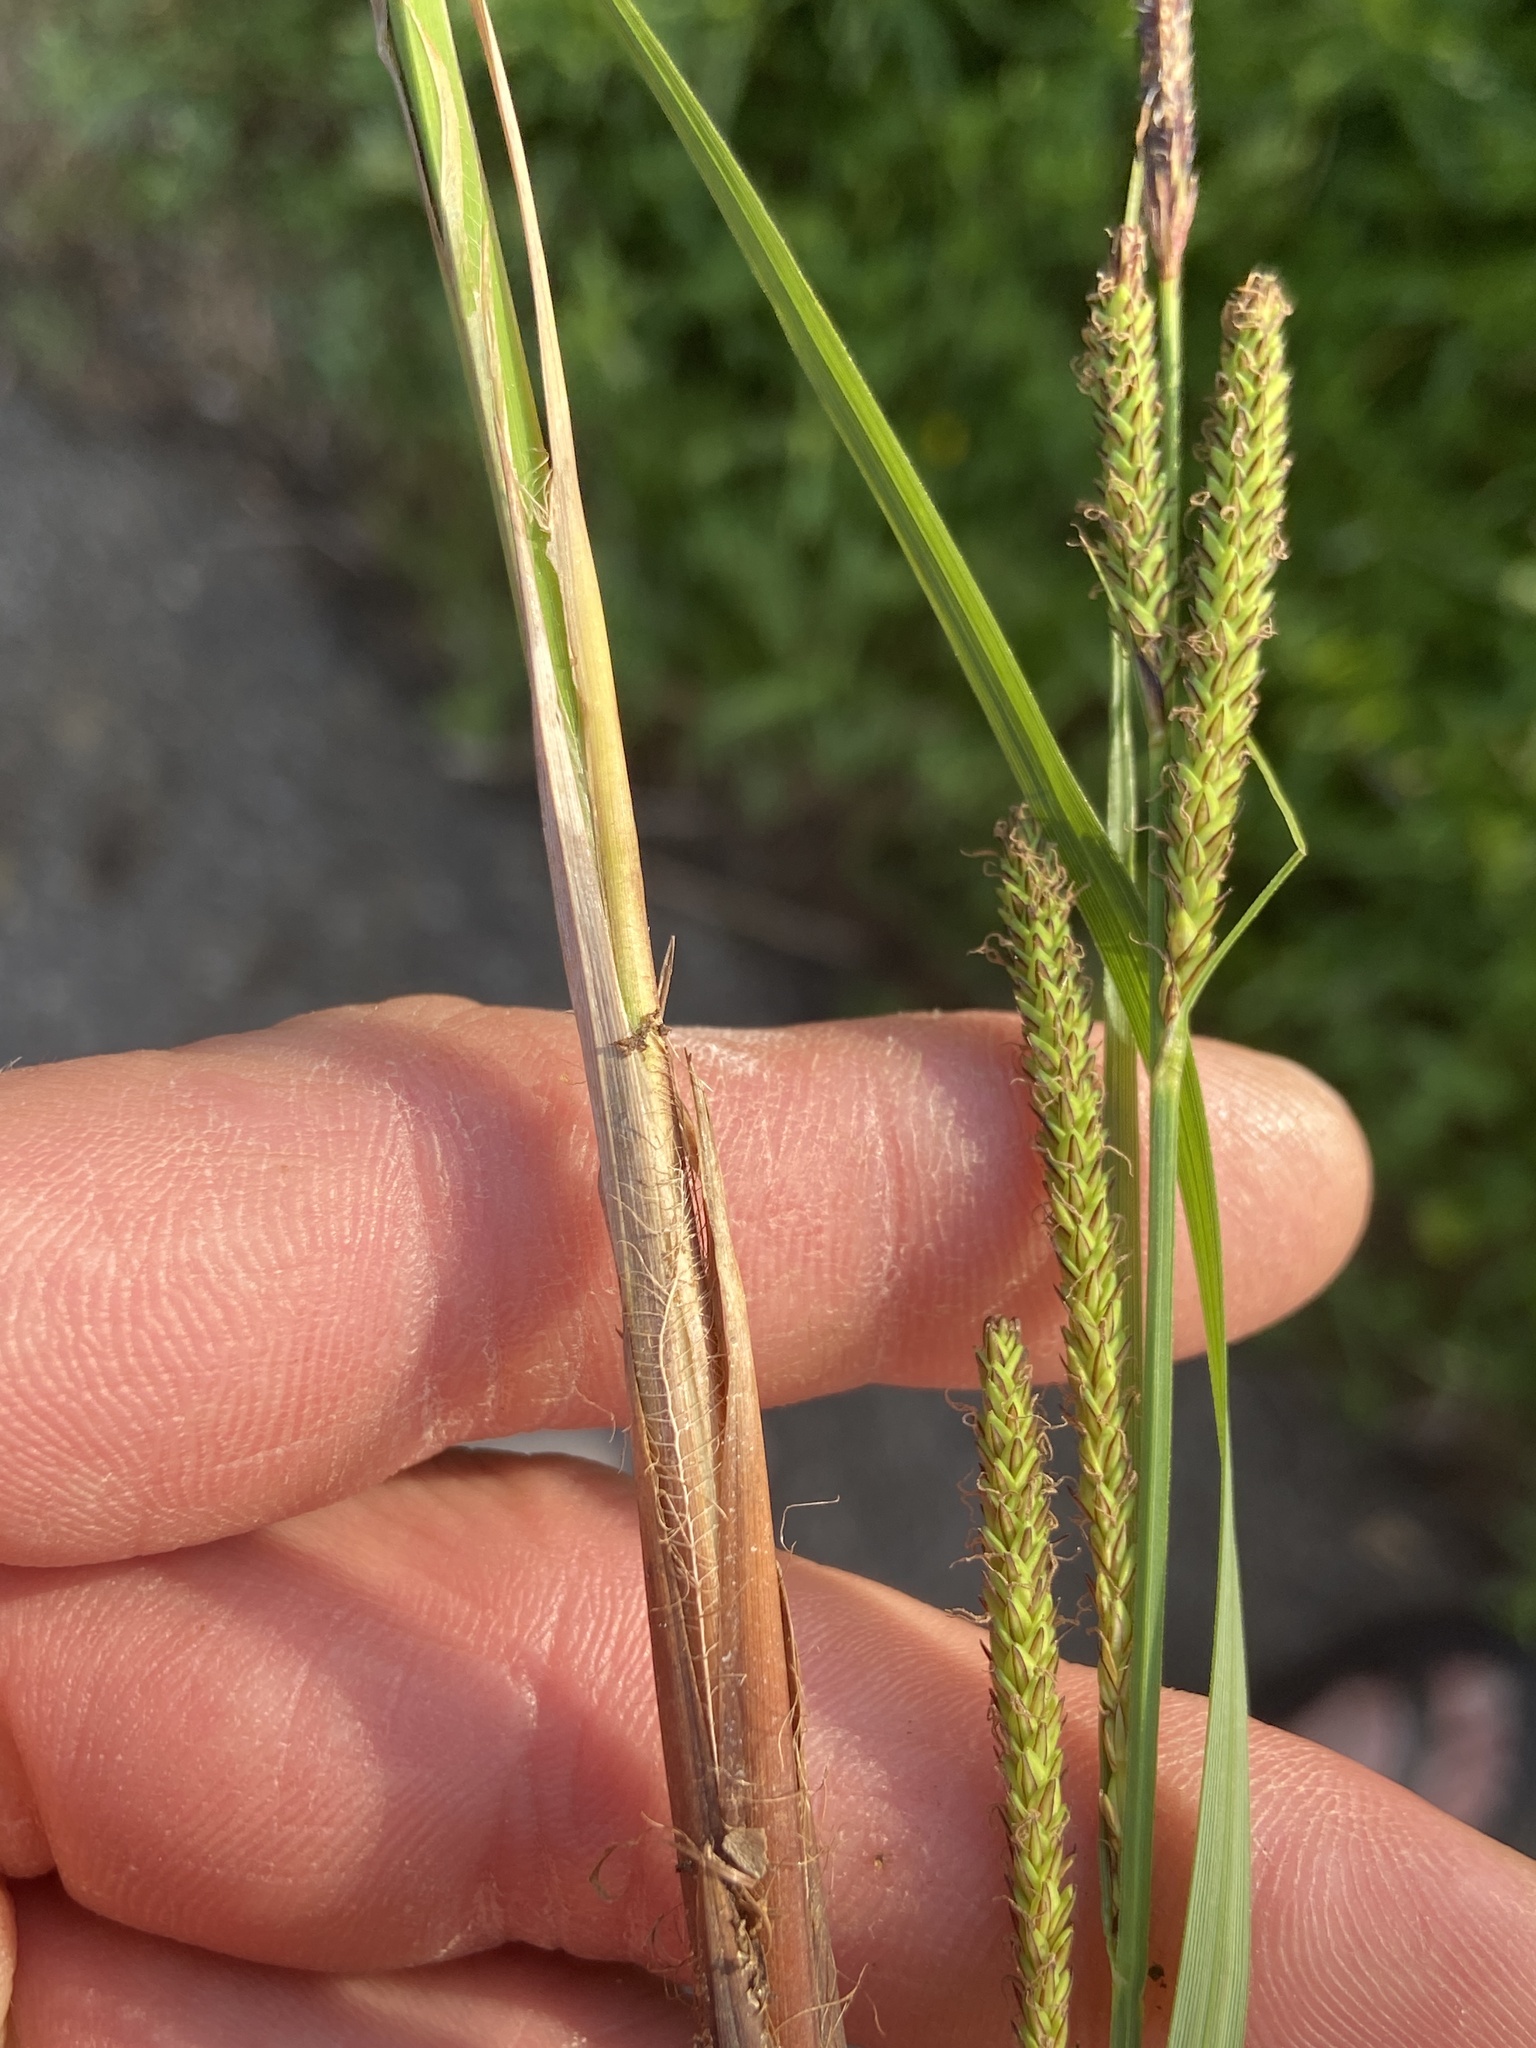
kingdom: Plantae
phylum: Tracheophyta
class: Liliopsida
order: Poales
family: Cyperaceae
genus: Carex
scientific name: Carex stricta
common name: Hummock sedge
